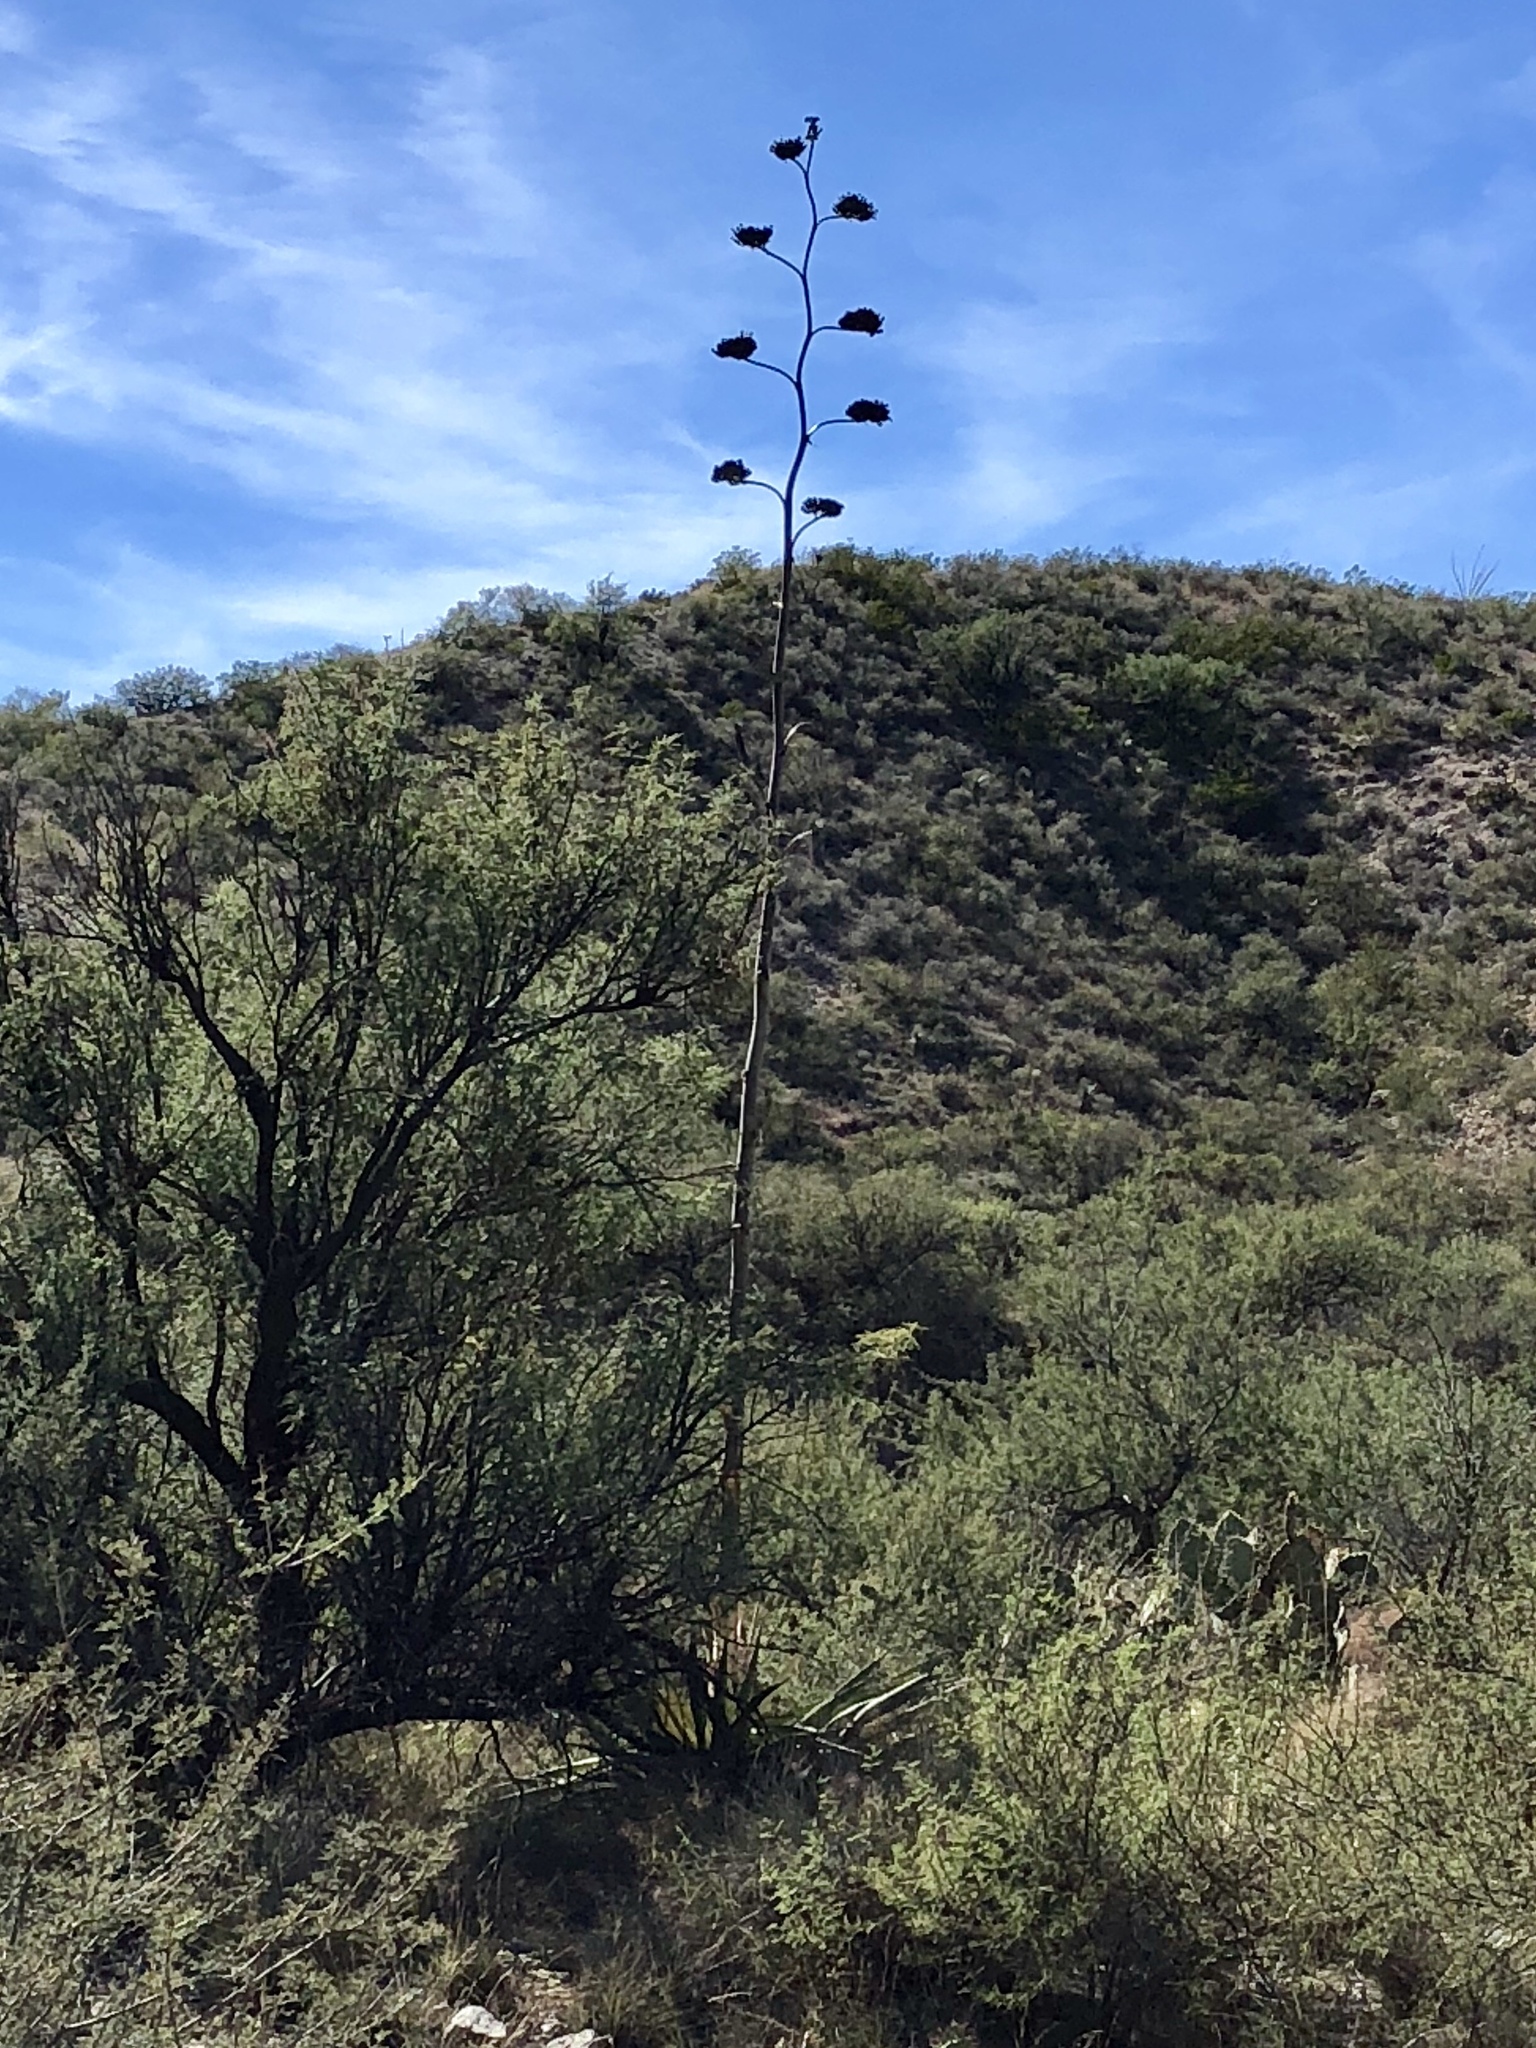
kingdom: Plantae
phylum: Tracheophyta
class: Liliopsida
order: Asparagales
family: Asparagaceae
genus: Agave
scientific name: Agave palmeri
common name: Palmer agave
